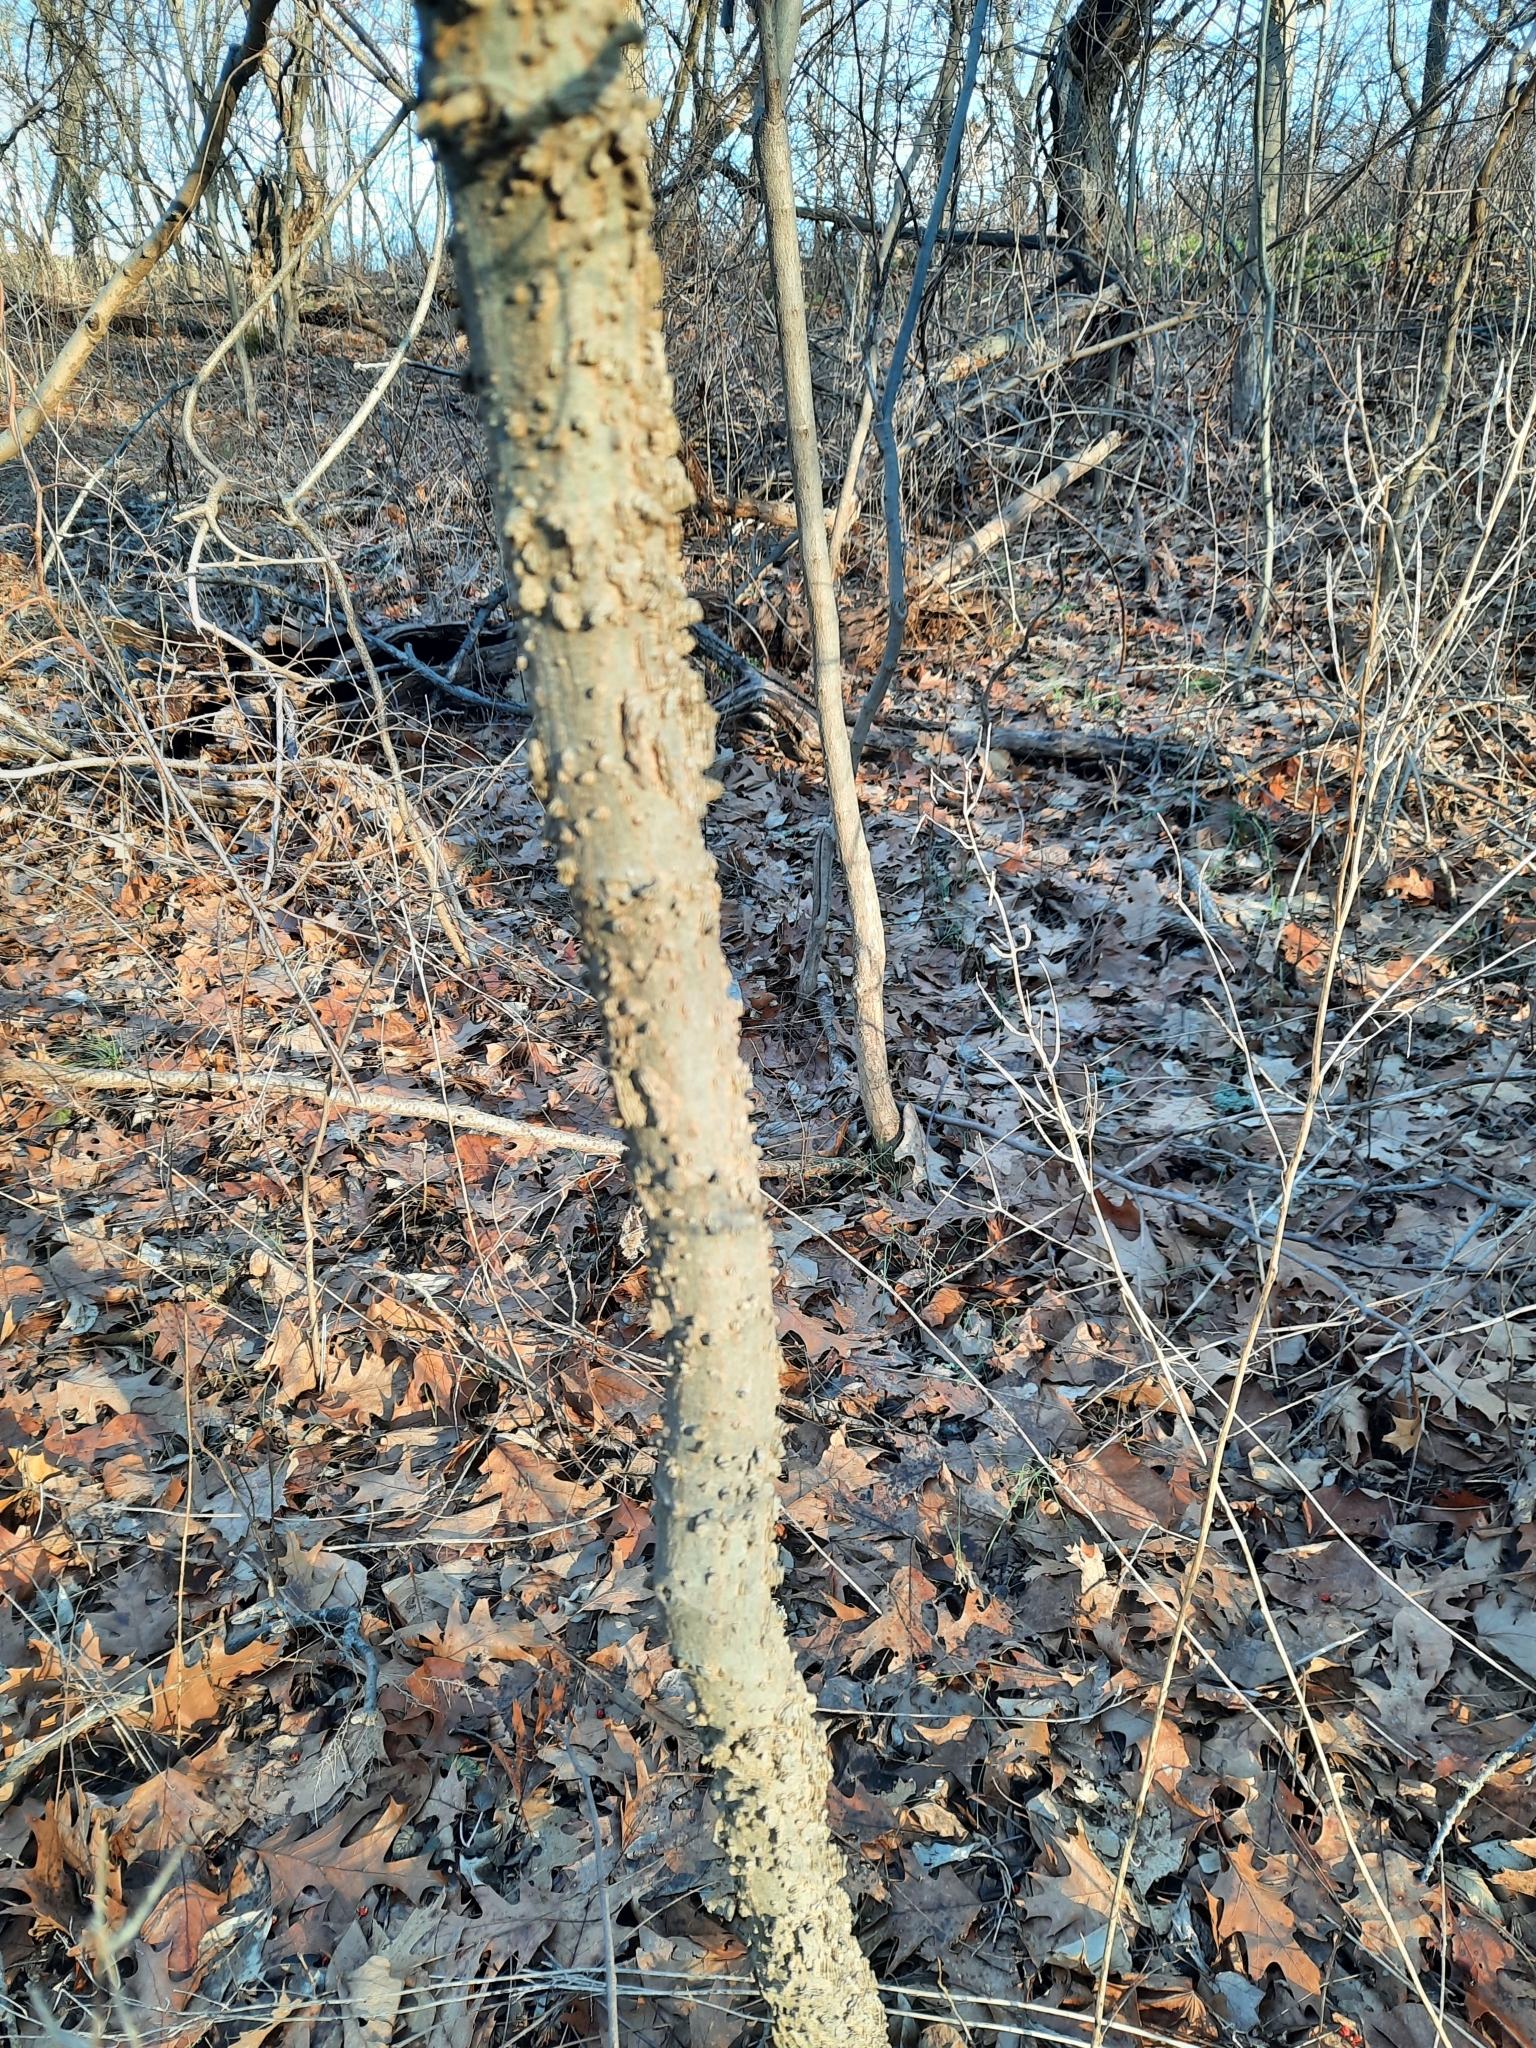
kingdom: Plantae
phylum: Tracheophyta
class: Magnoliopsida
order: Rosales
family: Cannabaceae
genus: Celtis
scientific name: Celtis occidentalis
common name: Common hackberry
